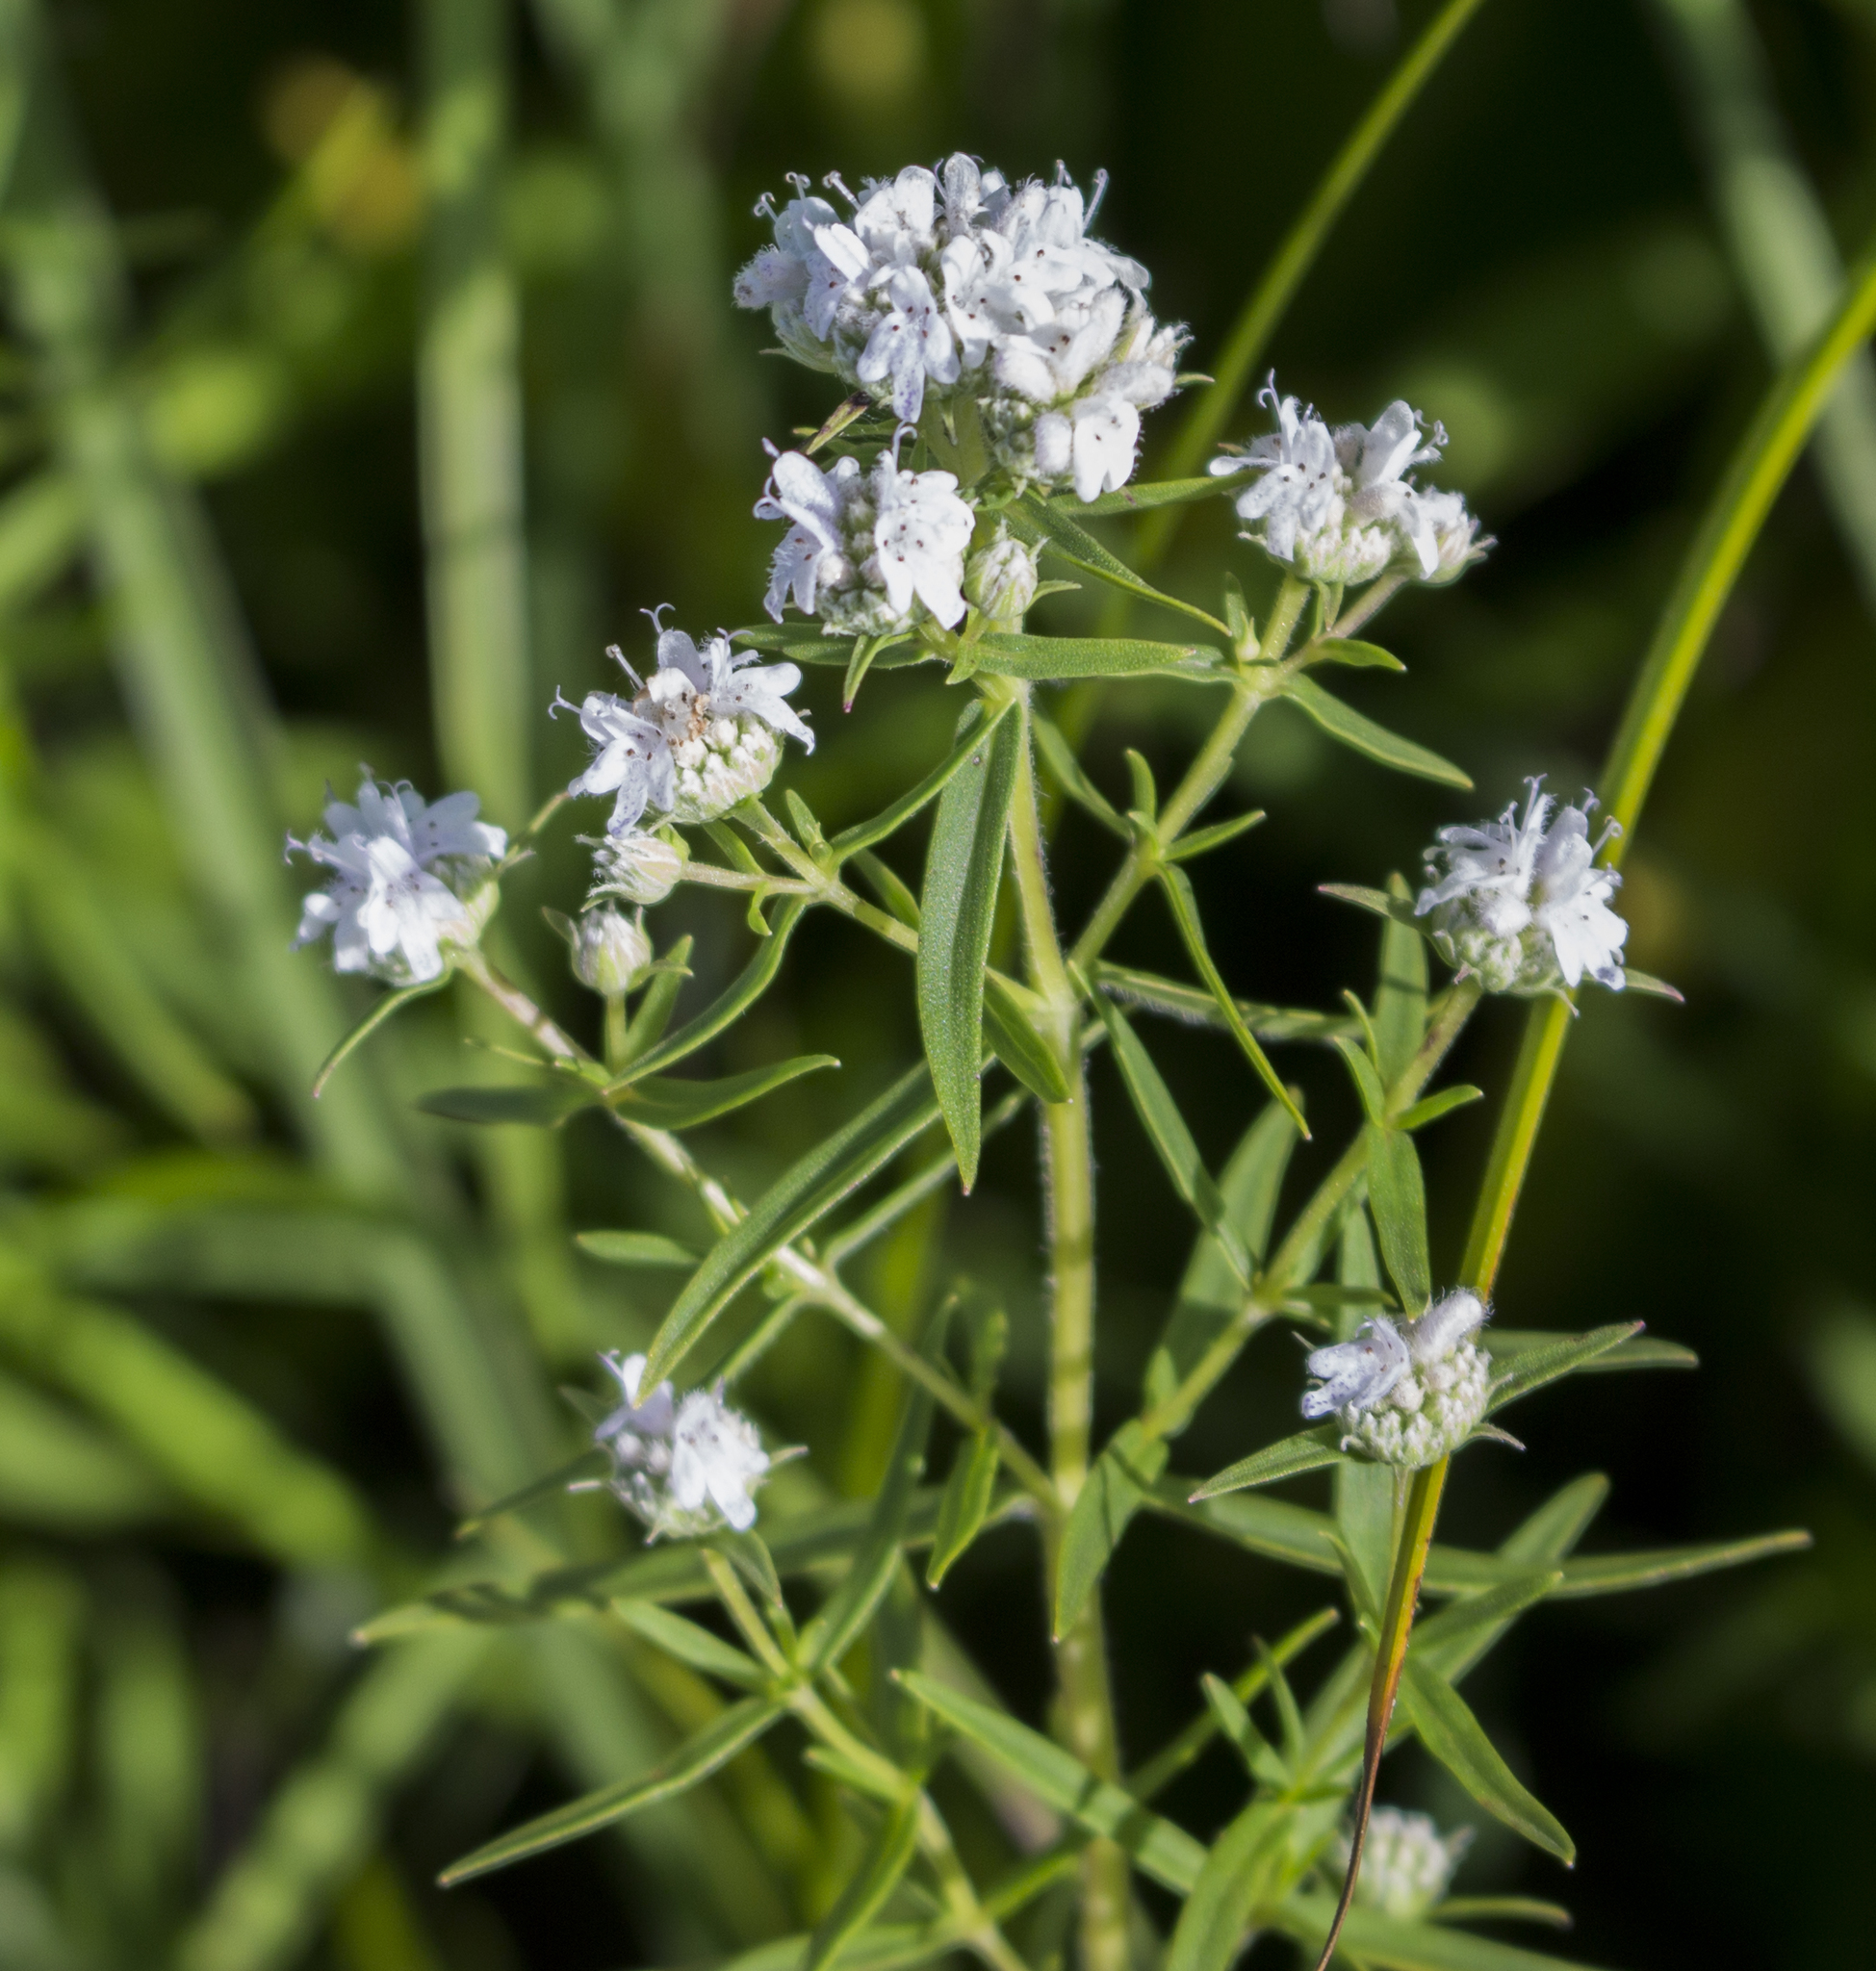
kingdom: Plantae
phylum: Tracheophyta
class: Magnoliopsida
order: Lamiales
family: Lamiaceae
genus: Pycnanthemum
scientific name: Pycnanthemum virginianum
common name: Virginia mountain-mint
